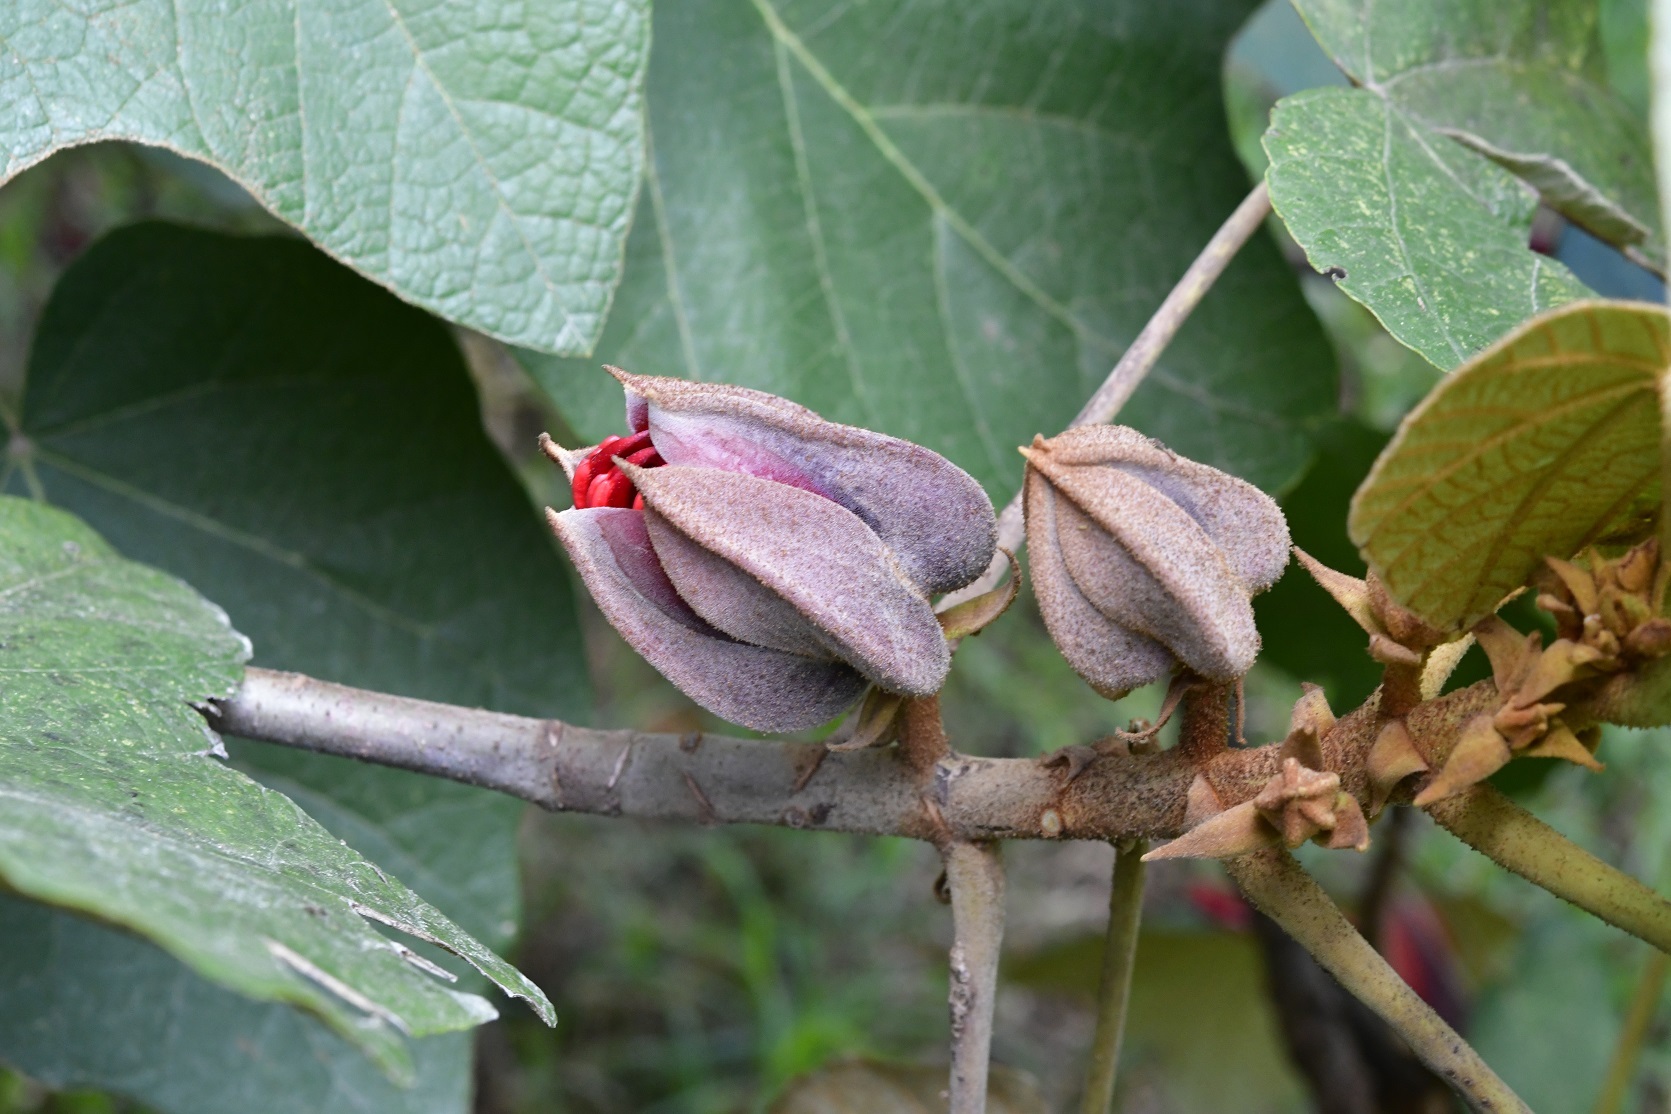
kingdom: Plantae
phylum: Tracheophyta
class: Magnoliopsida
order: Malvales
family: Malvaceae
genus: Chiranthodendron
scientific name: Chiranthodendron pentadactylon
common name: Mexican-hat-plant
